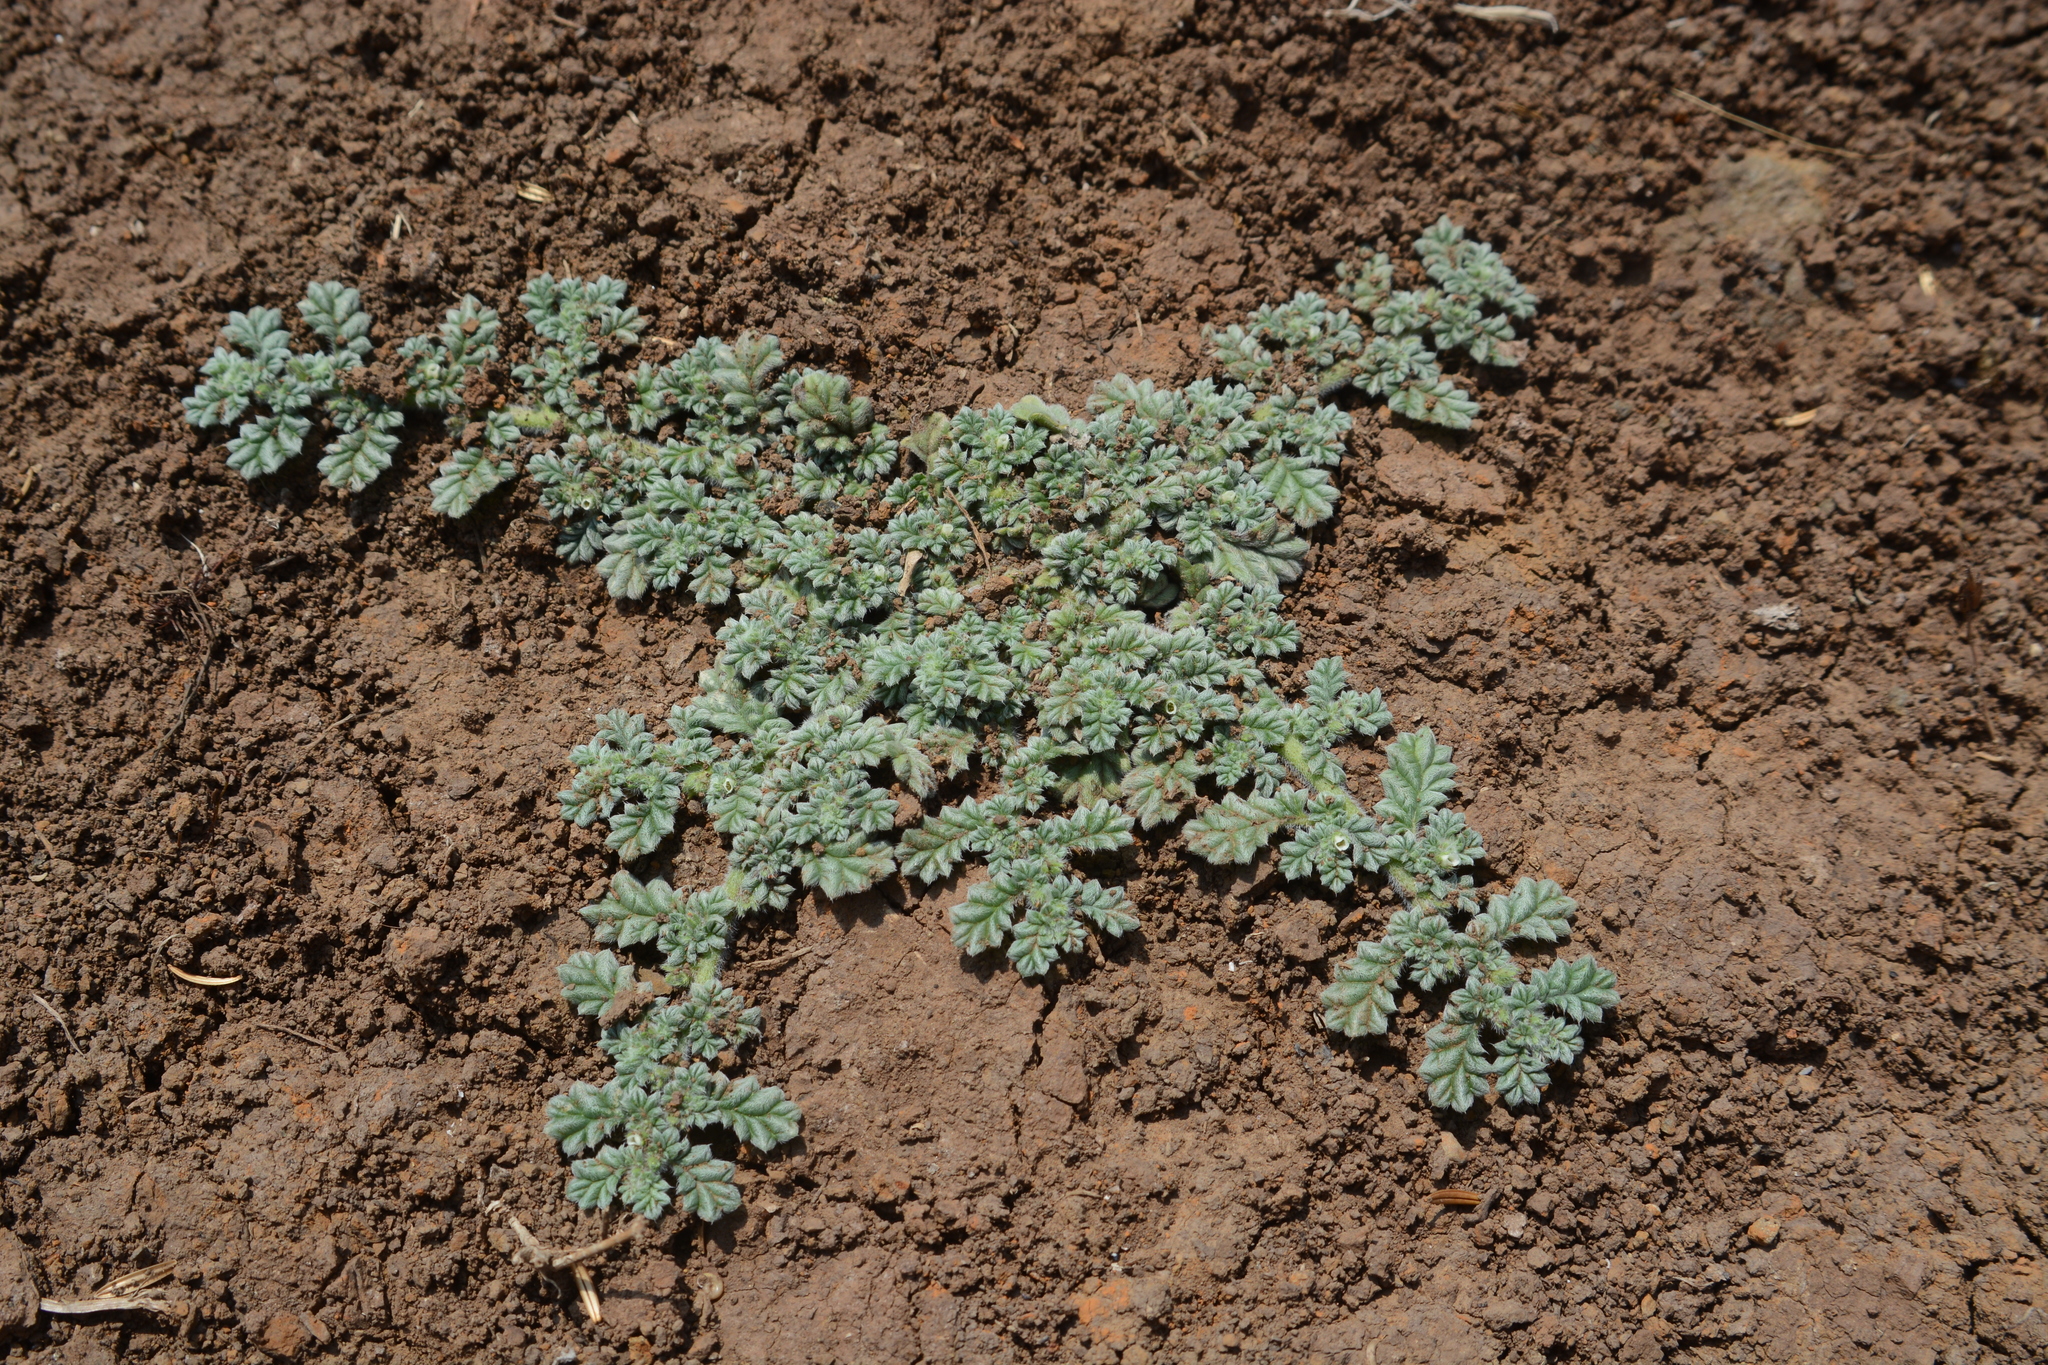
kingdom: Plantae
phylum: Tracheophyta
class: Magnoliopsida
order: Boraginales
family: Coldeniaceae
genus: Coldenia
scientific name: Coldenia procumbens
